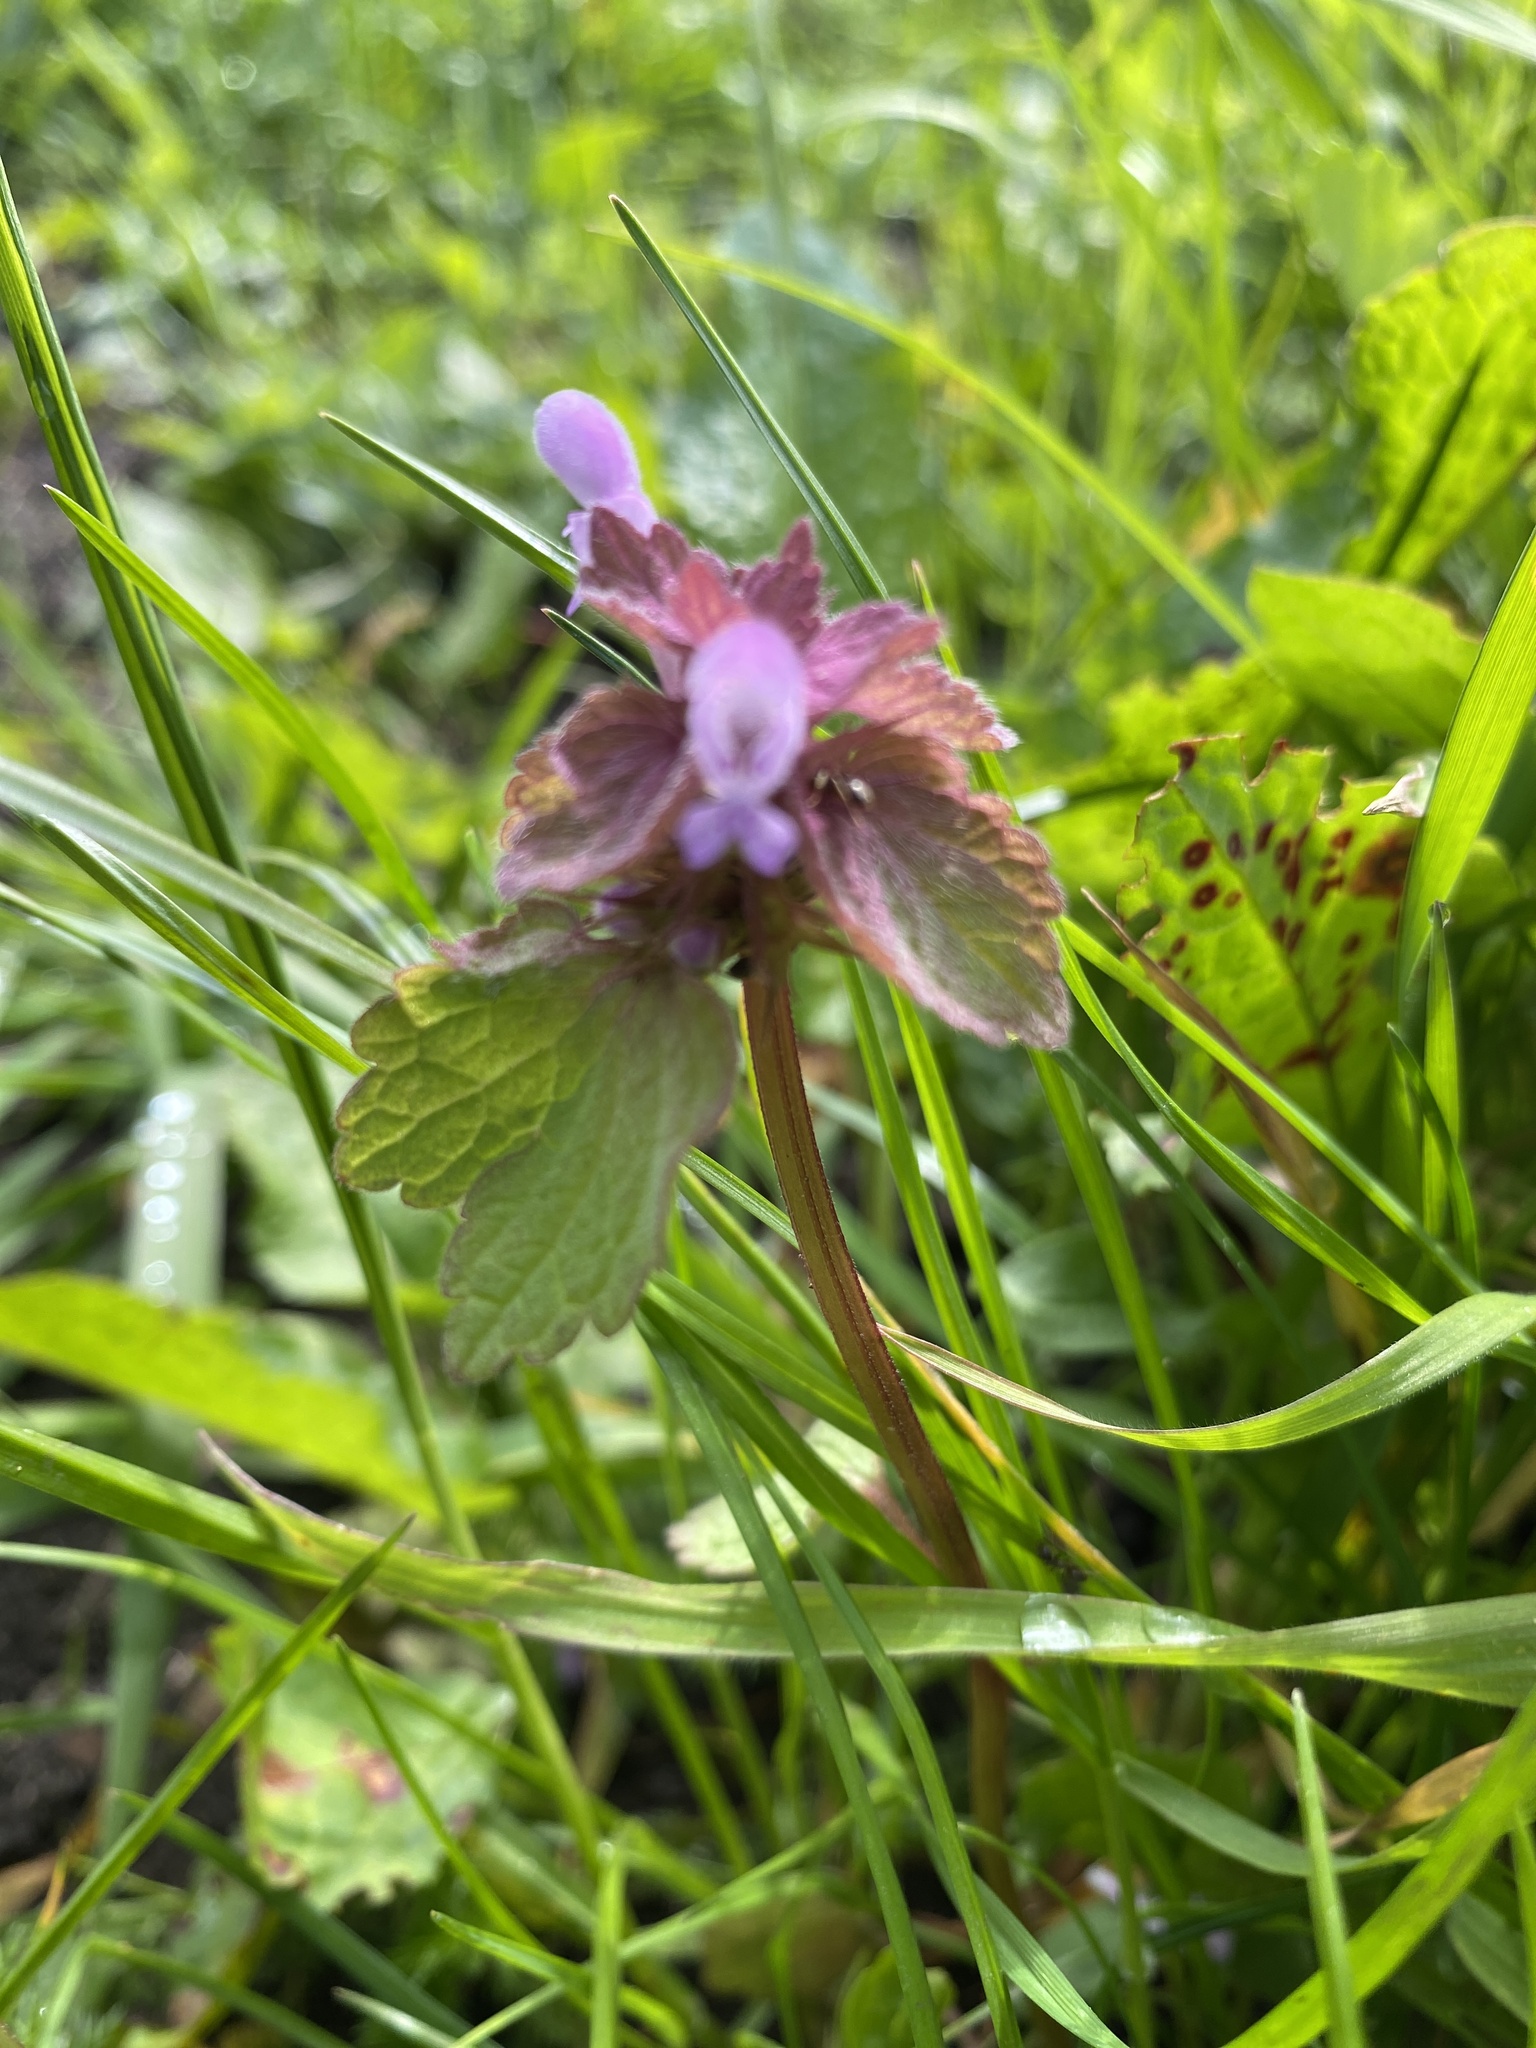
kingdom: Plantae
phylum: Tracheophyta
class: Magnoliopsida
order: Lamiales
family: Lamiaceae
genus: Lamium
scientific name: Lamium purpureum
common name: Red dead-nettle
